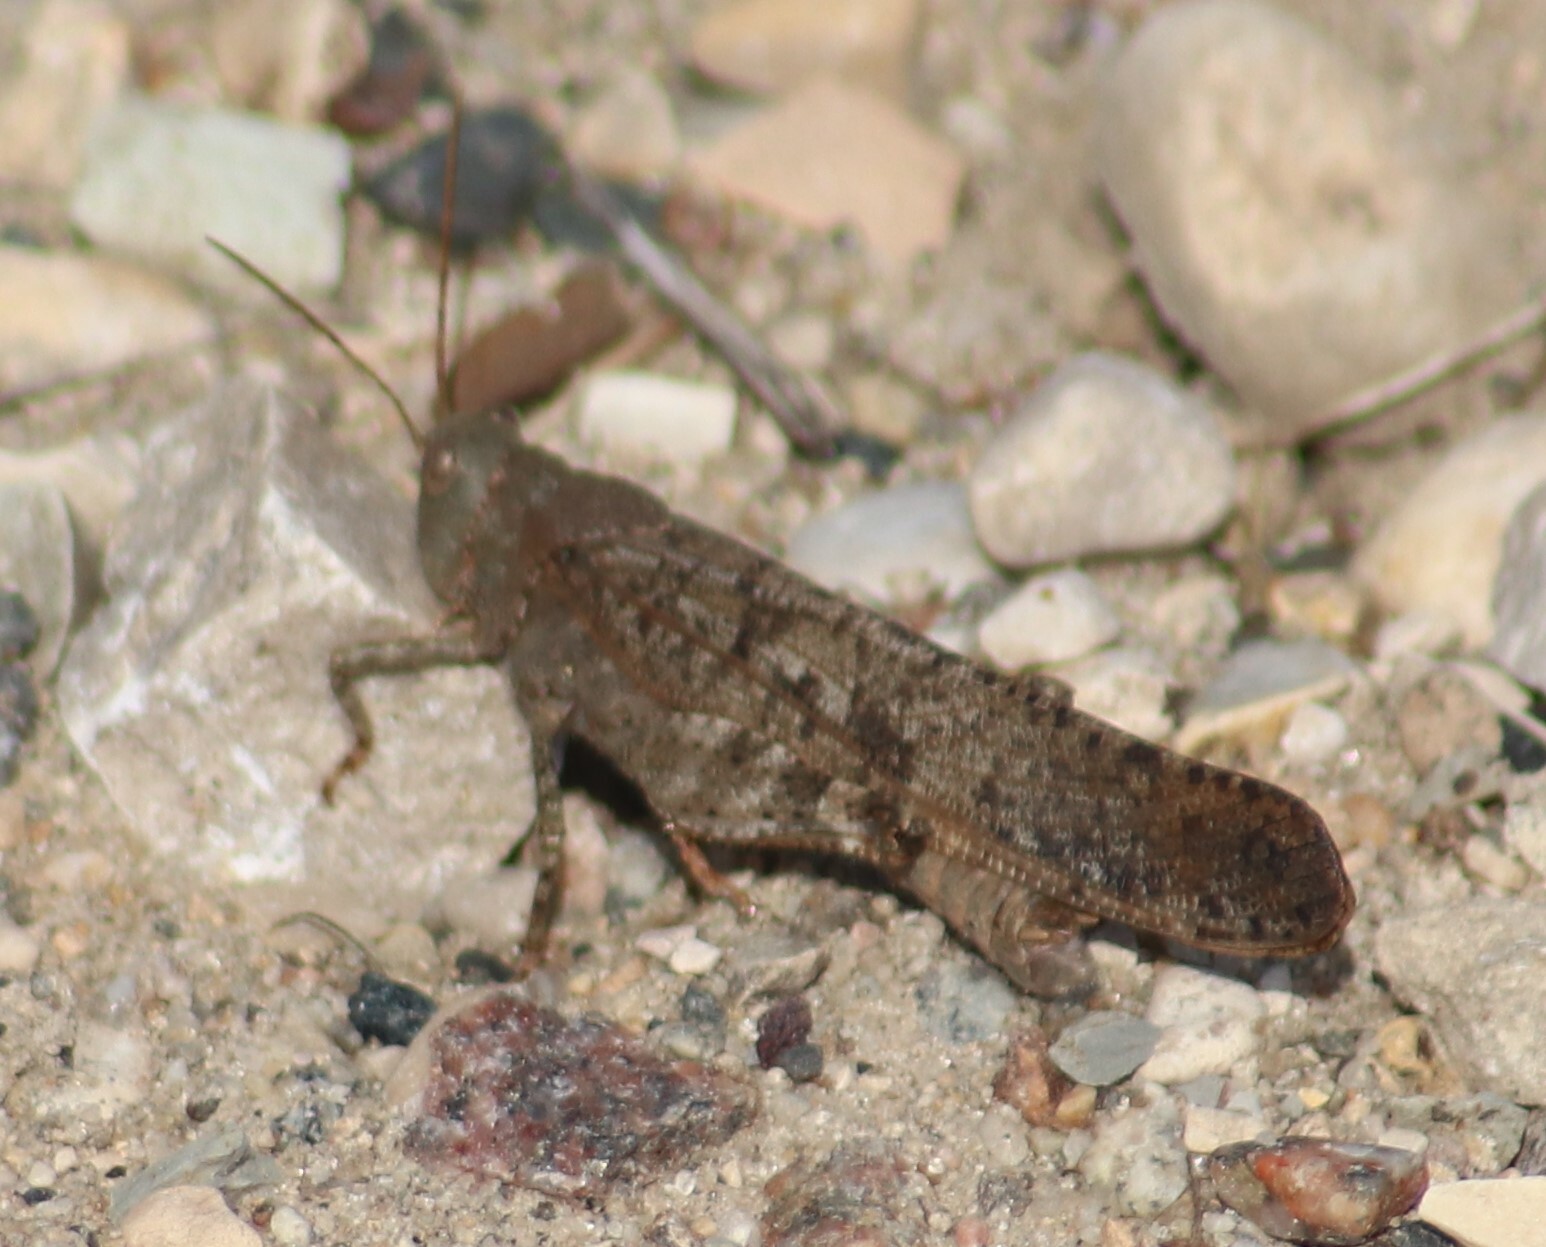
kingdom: Animalia
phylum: Arthropoda
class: Insecta
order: Orthoptera
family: Acrididae
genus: Dissosteira
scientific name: Dissosteira carolina
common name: Carolina grasshopper
